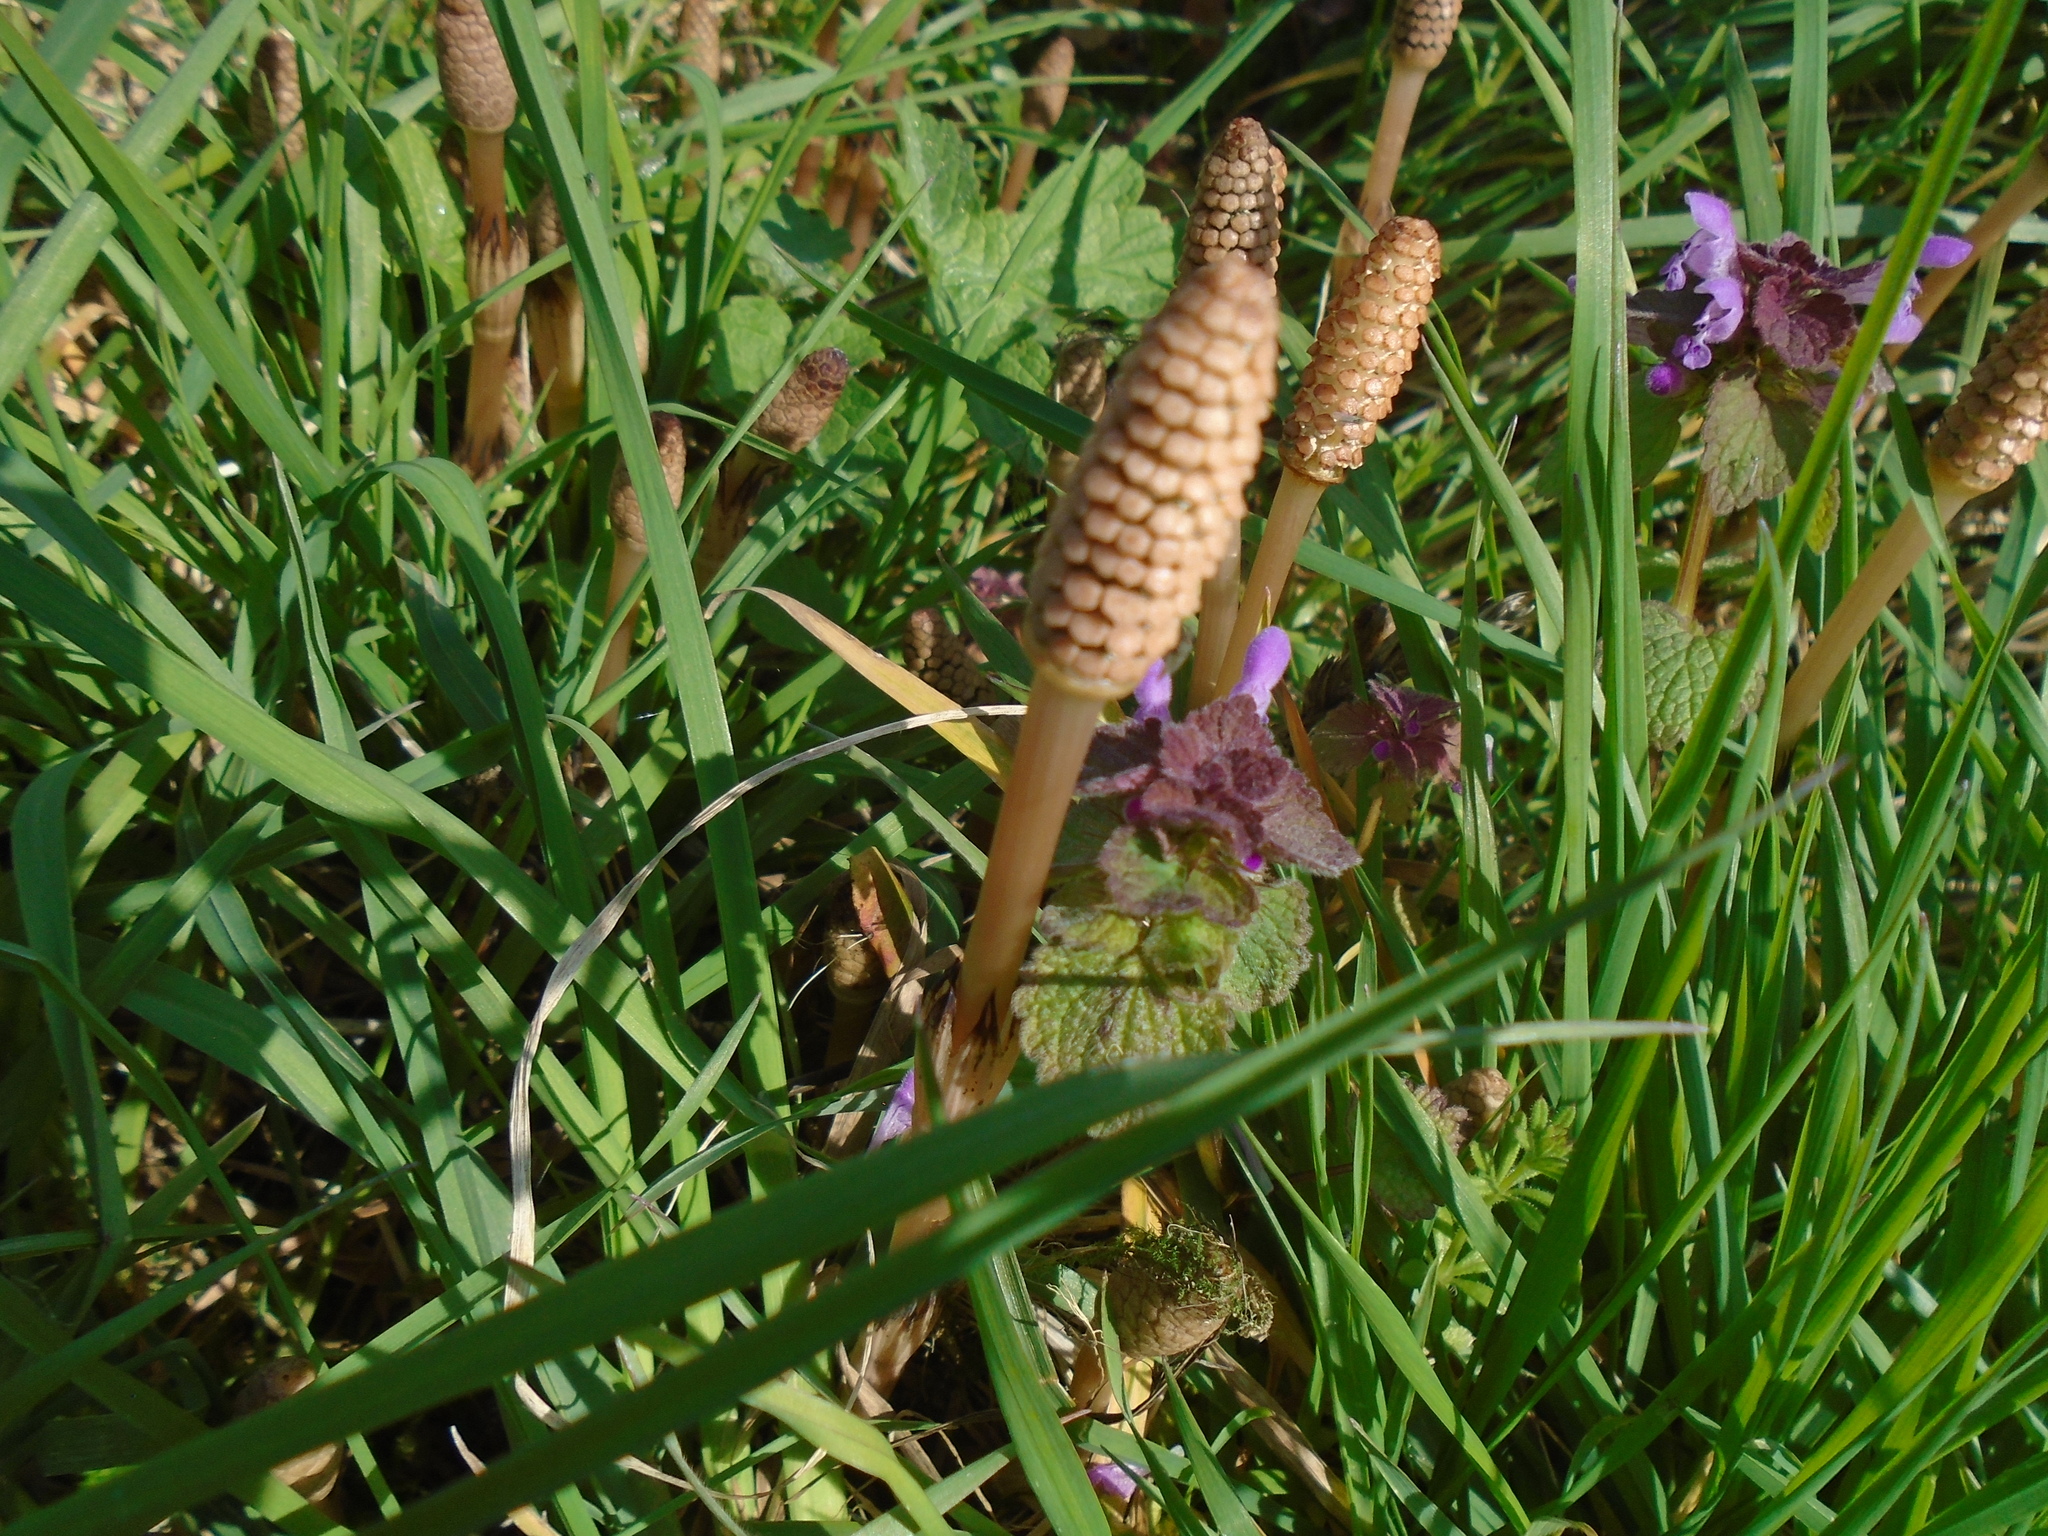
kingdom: Plantae
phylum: Tracheophyta
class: Polypodiopsida
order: Equisetales
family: Equisetaceae
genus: Equisetum
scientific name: Equisetum arvense
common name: Field horsetail
